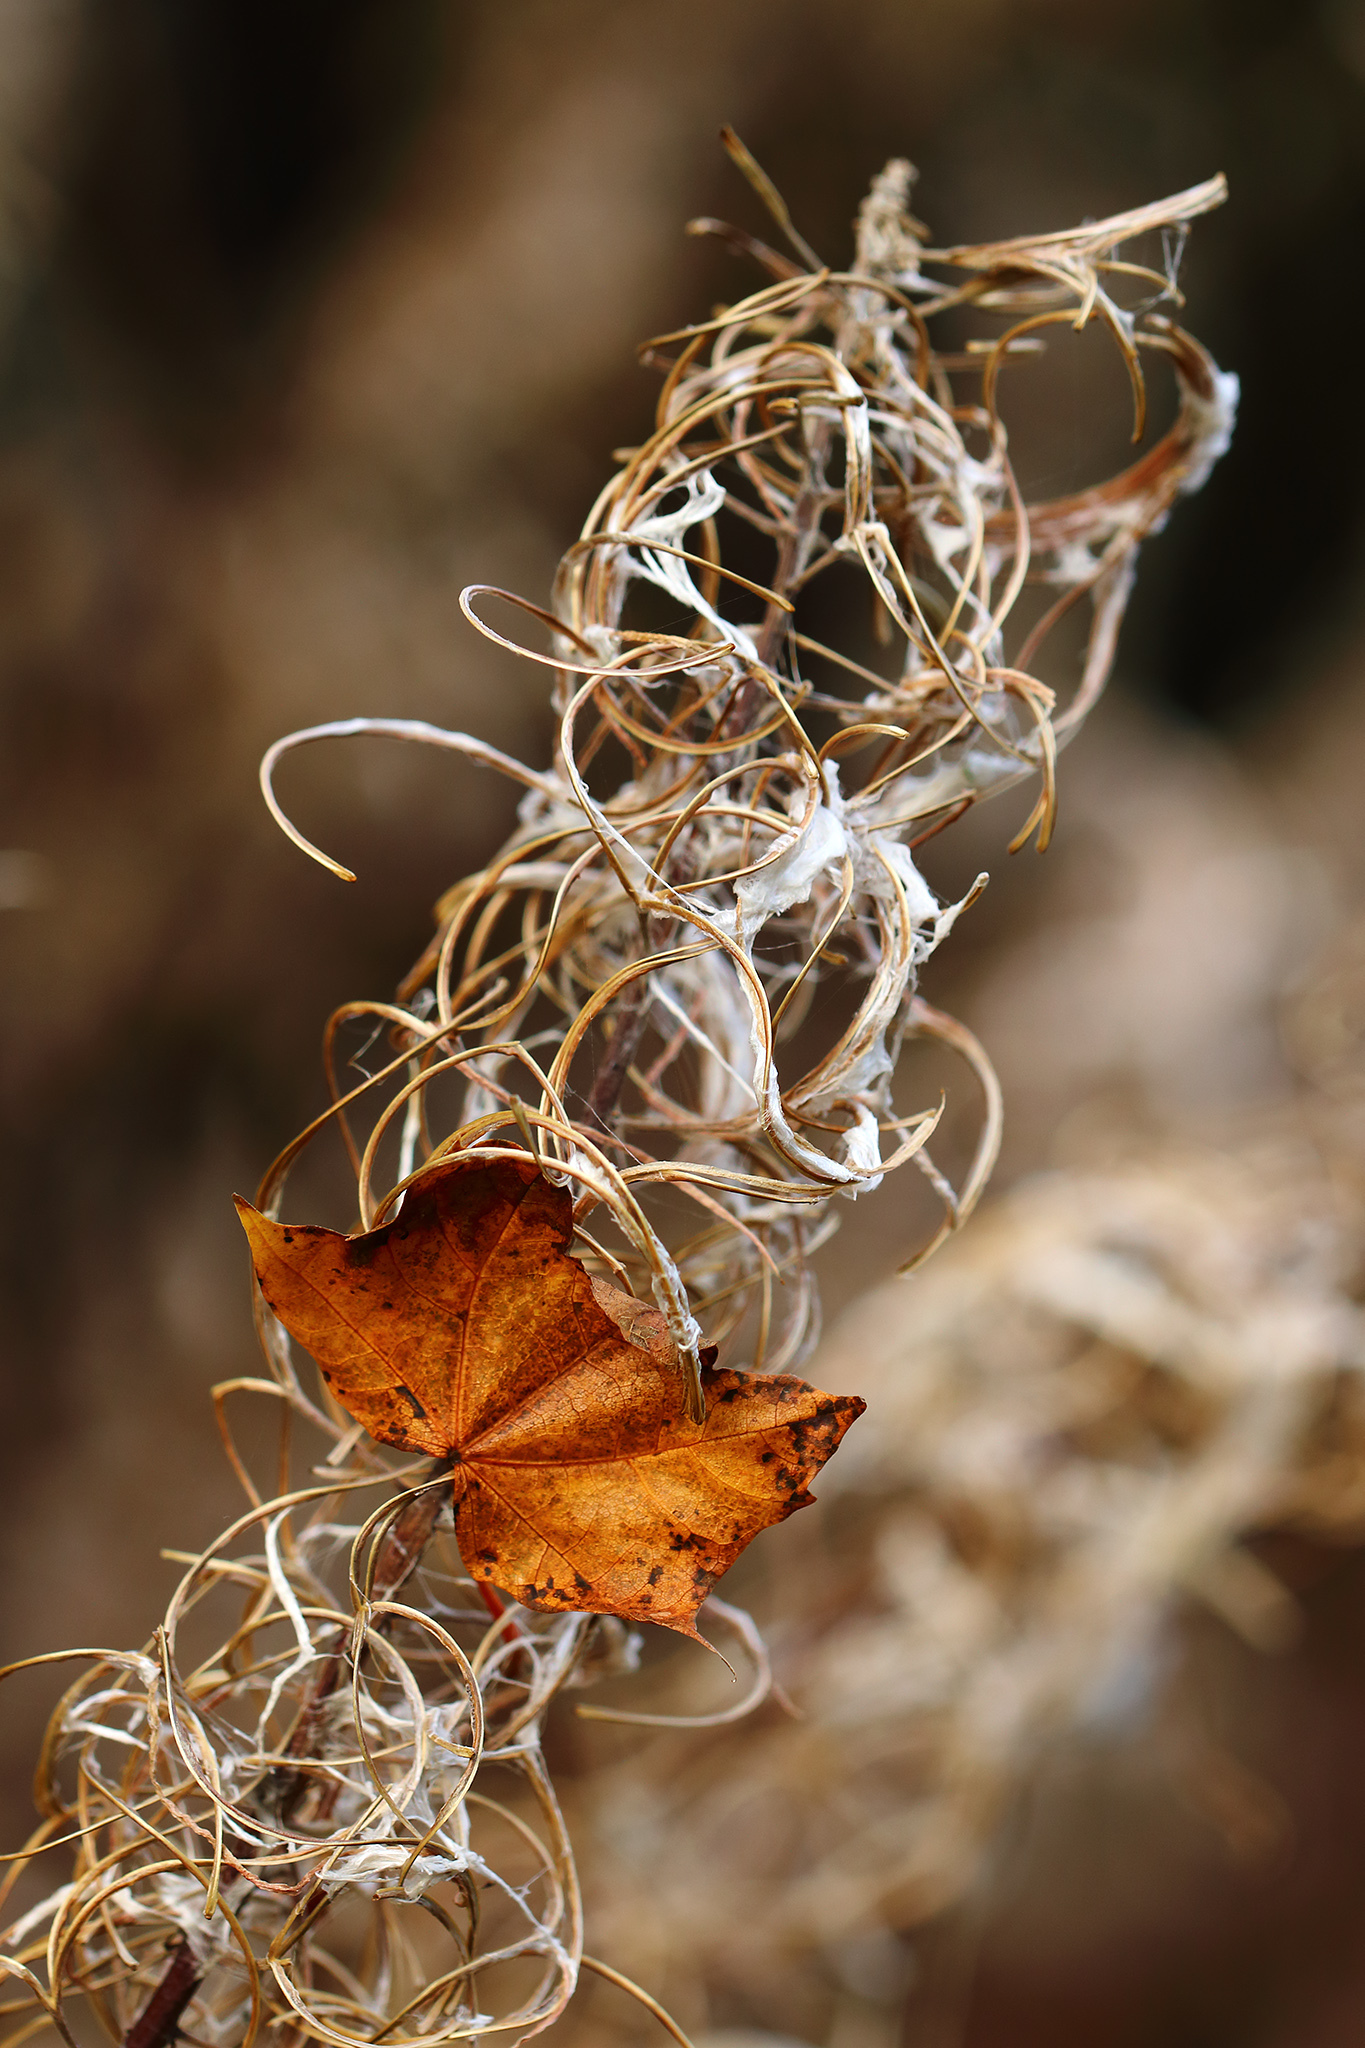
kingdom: Plantae
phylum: Tracheophyta
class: Magnoliopsida
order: Myrtales
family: Onagraceae
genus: Chamaenerion
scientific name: Chamaenerion angustifolium
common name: Fireweed
